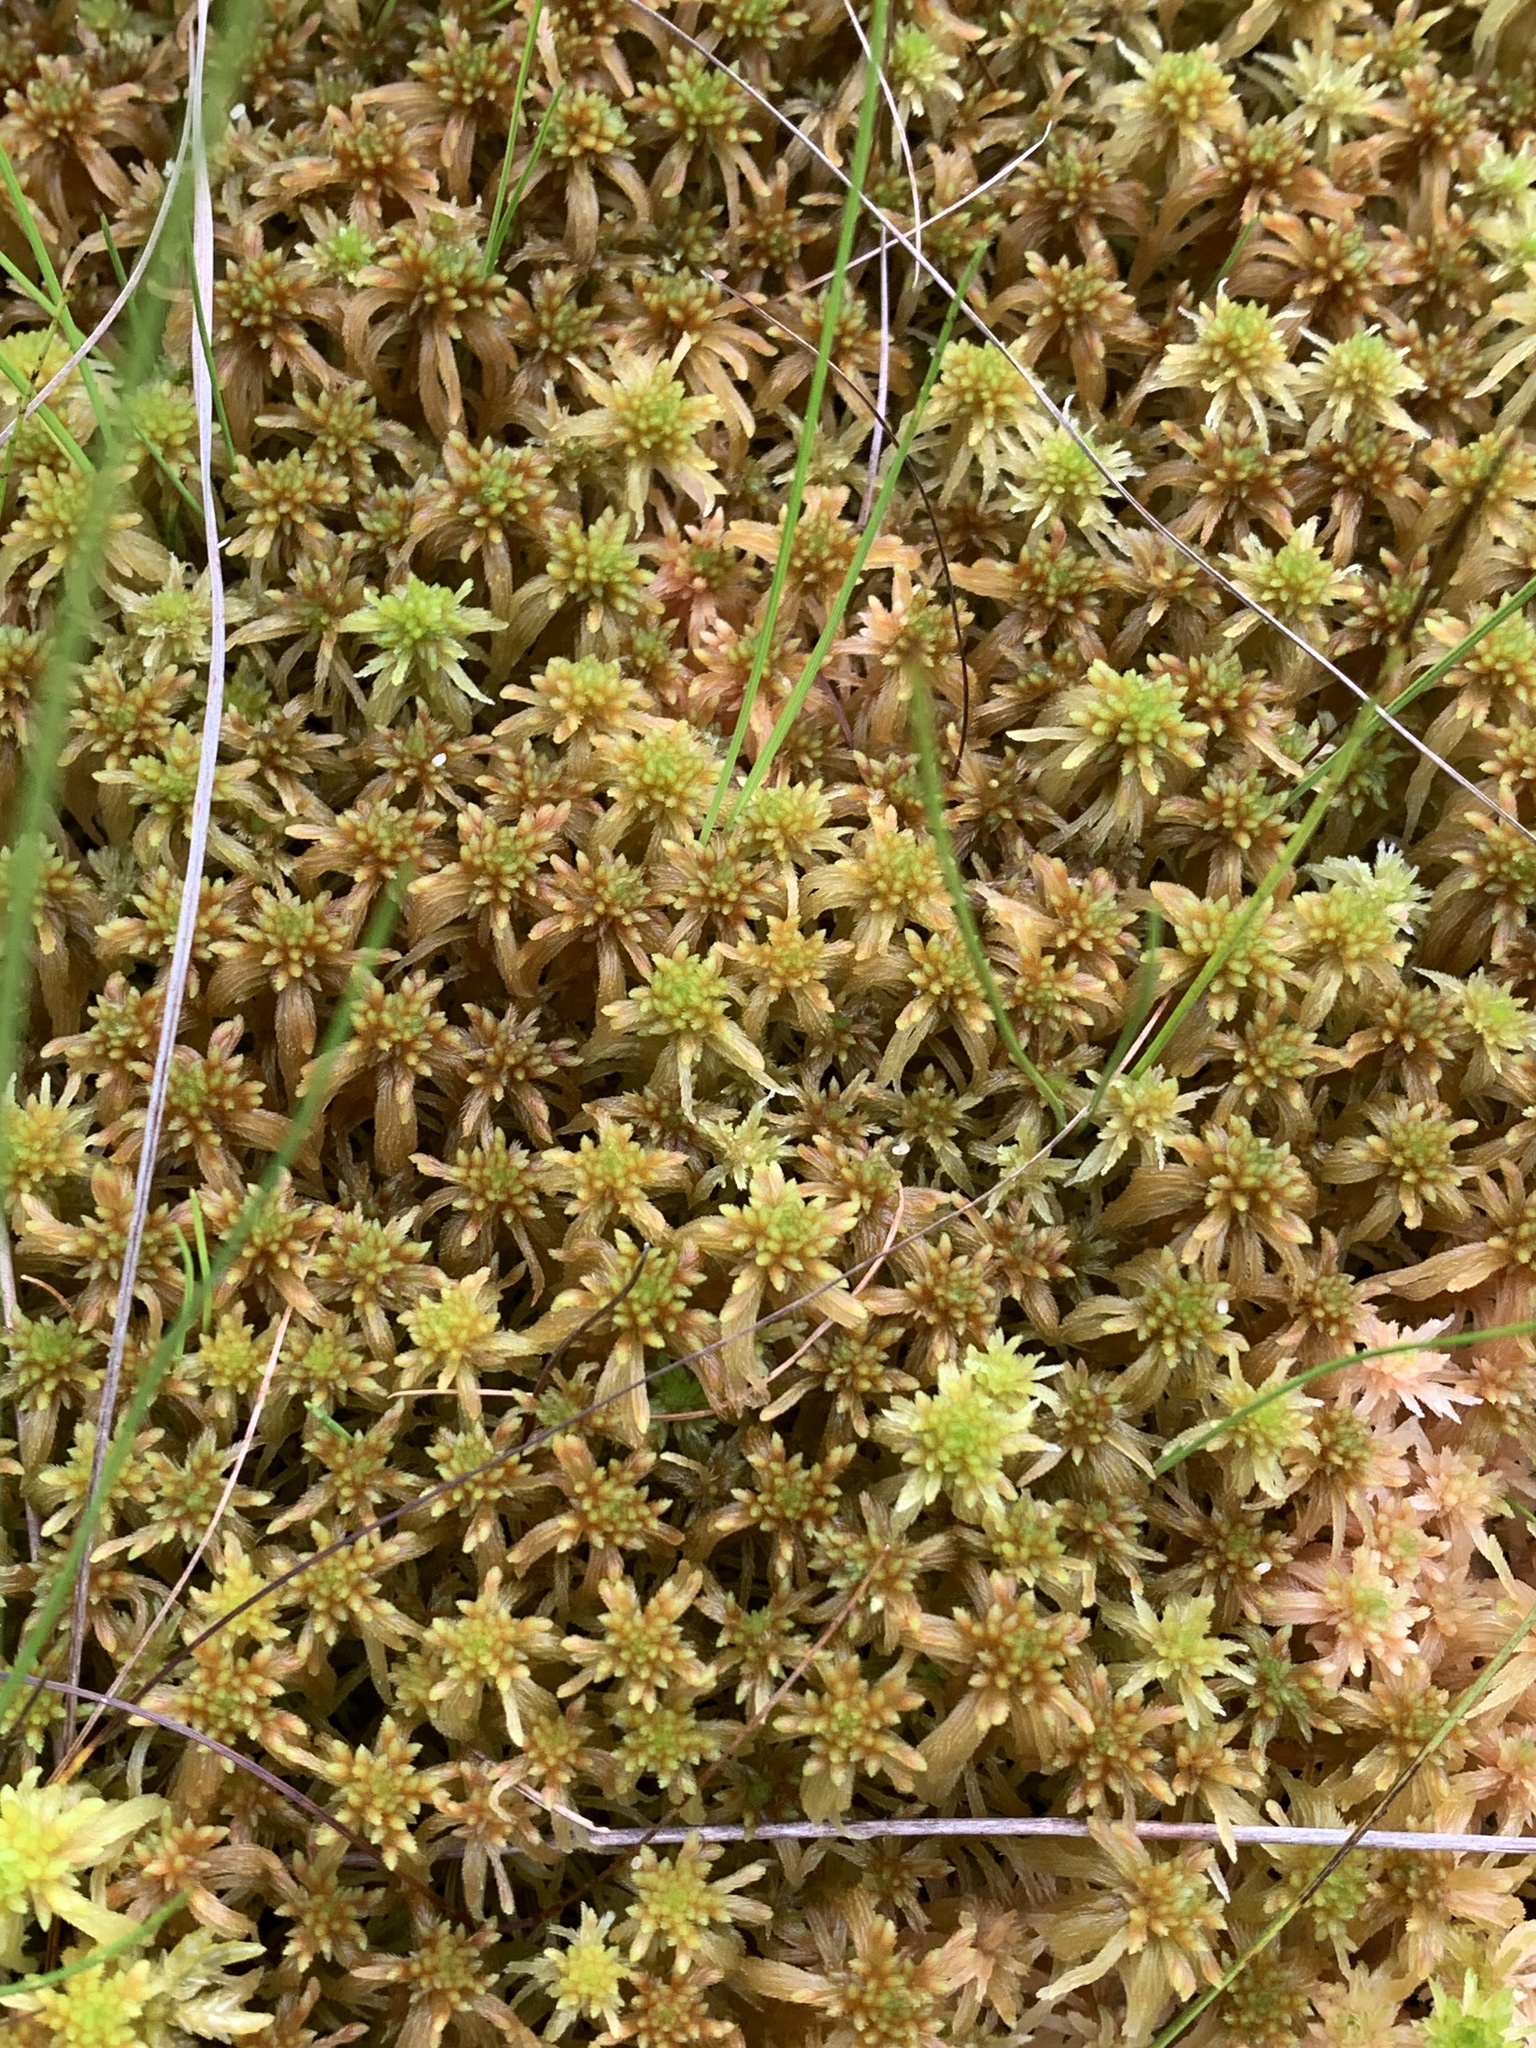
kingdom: Plantae
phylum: Bryophyta
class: Sphagnopsida
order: Sphagnales
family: Sphagnaceae
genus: Sphagnum
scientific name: Sphagnum flexuosum
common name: Flexible peat moss
